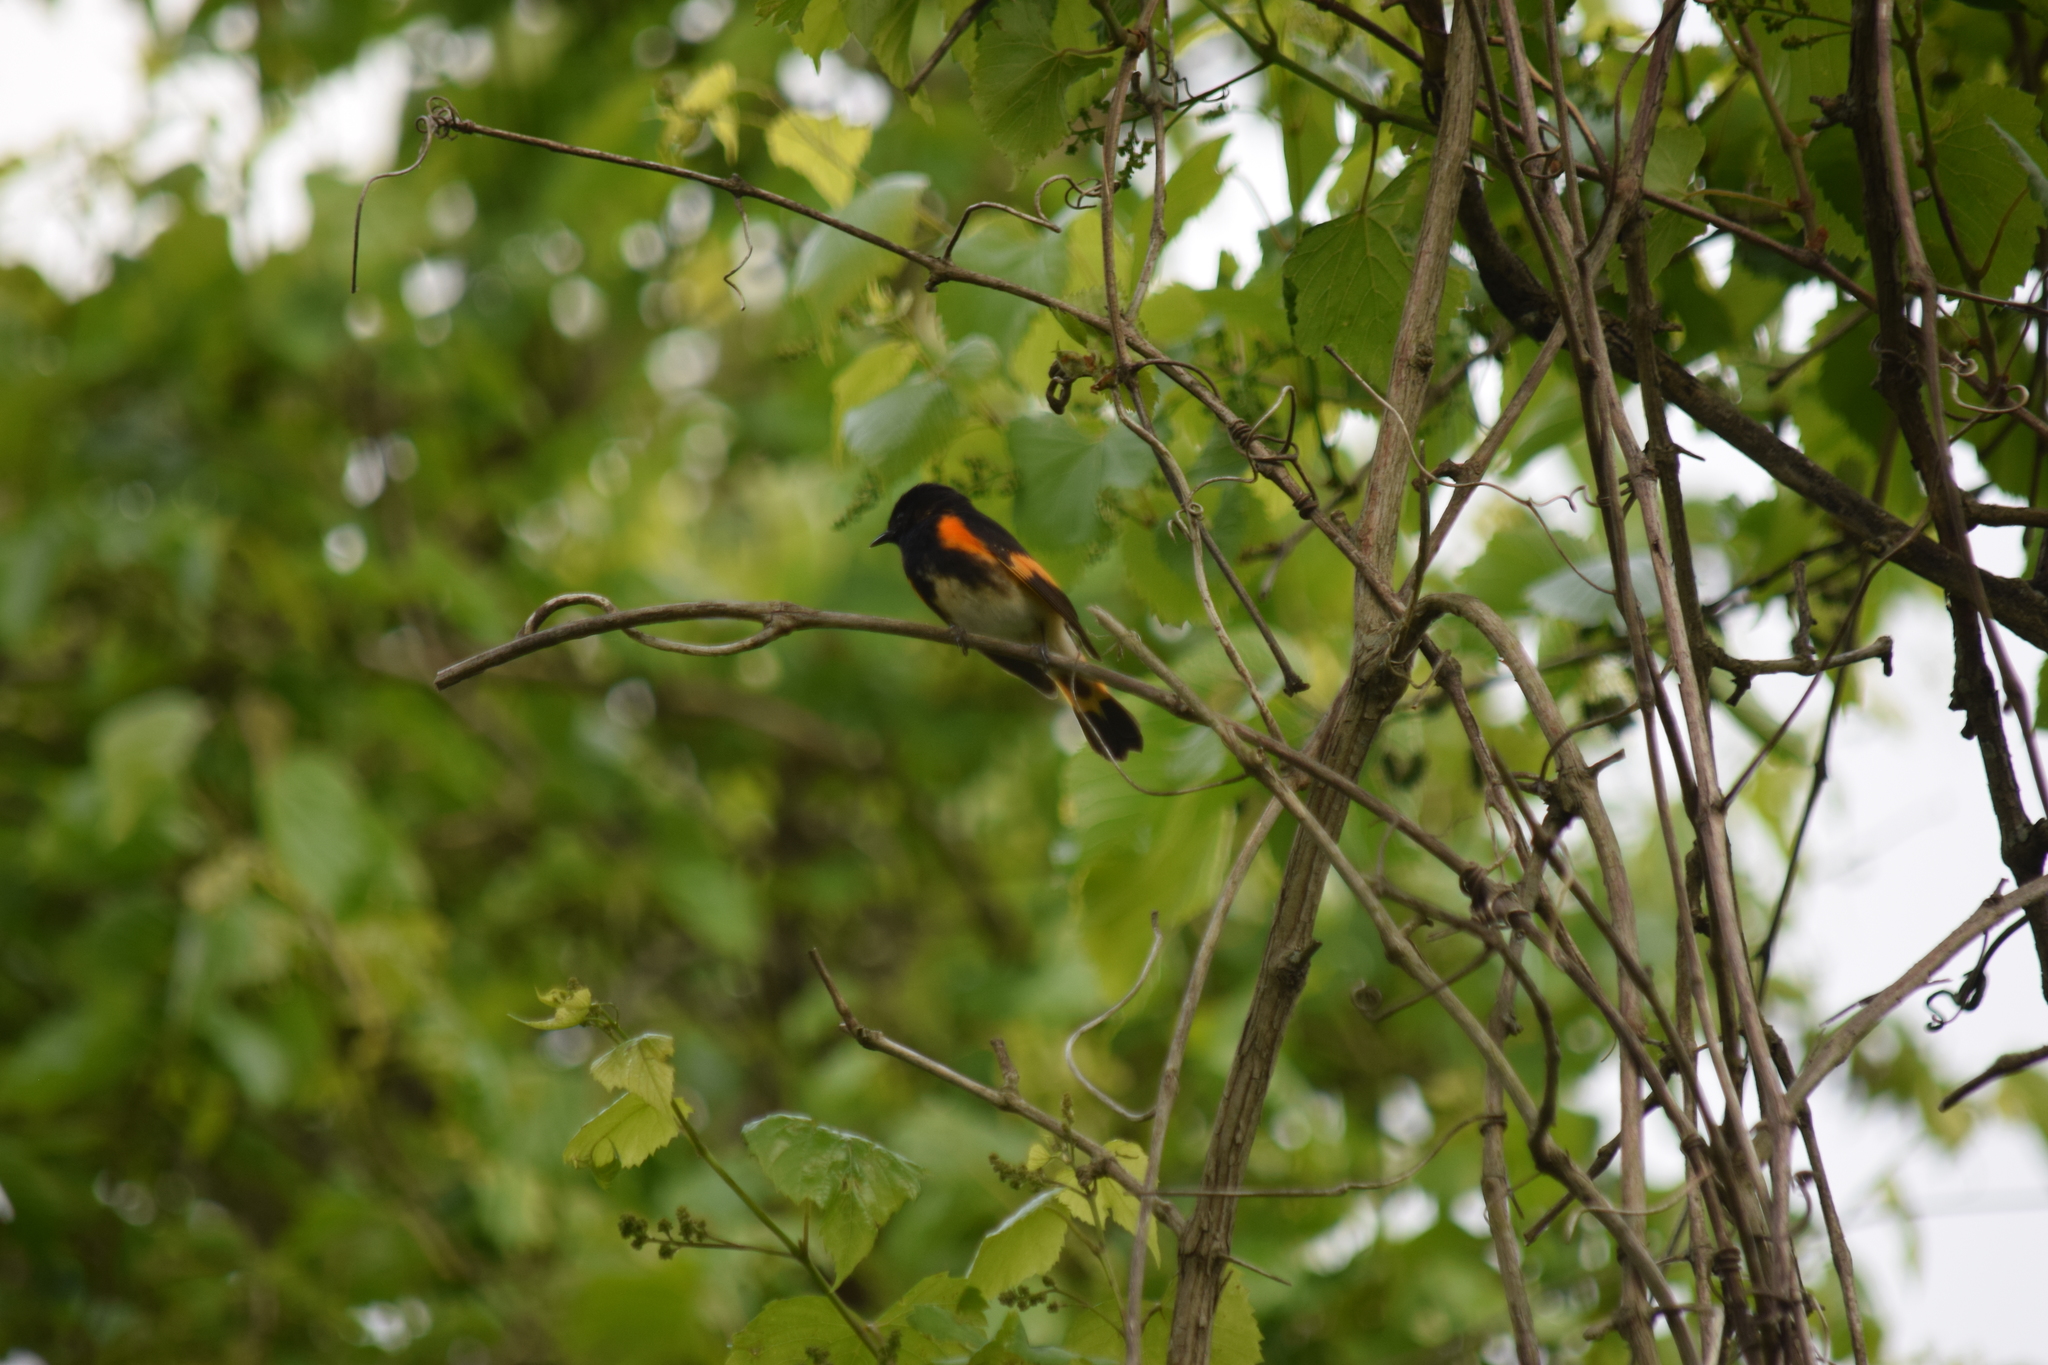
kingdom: Animalia
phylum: Chordata
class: Aves
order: Passeriformes
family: Parulidae
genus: Setophaga
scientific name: Setophaga ruticilla
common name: American redstart
